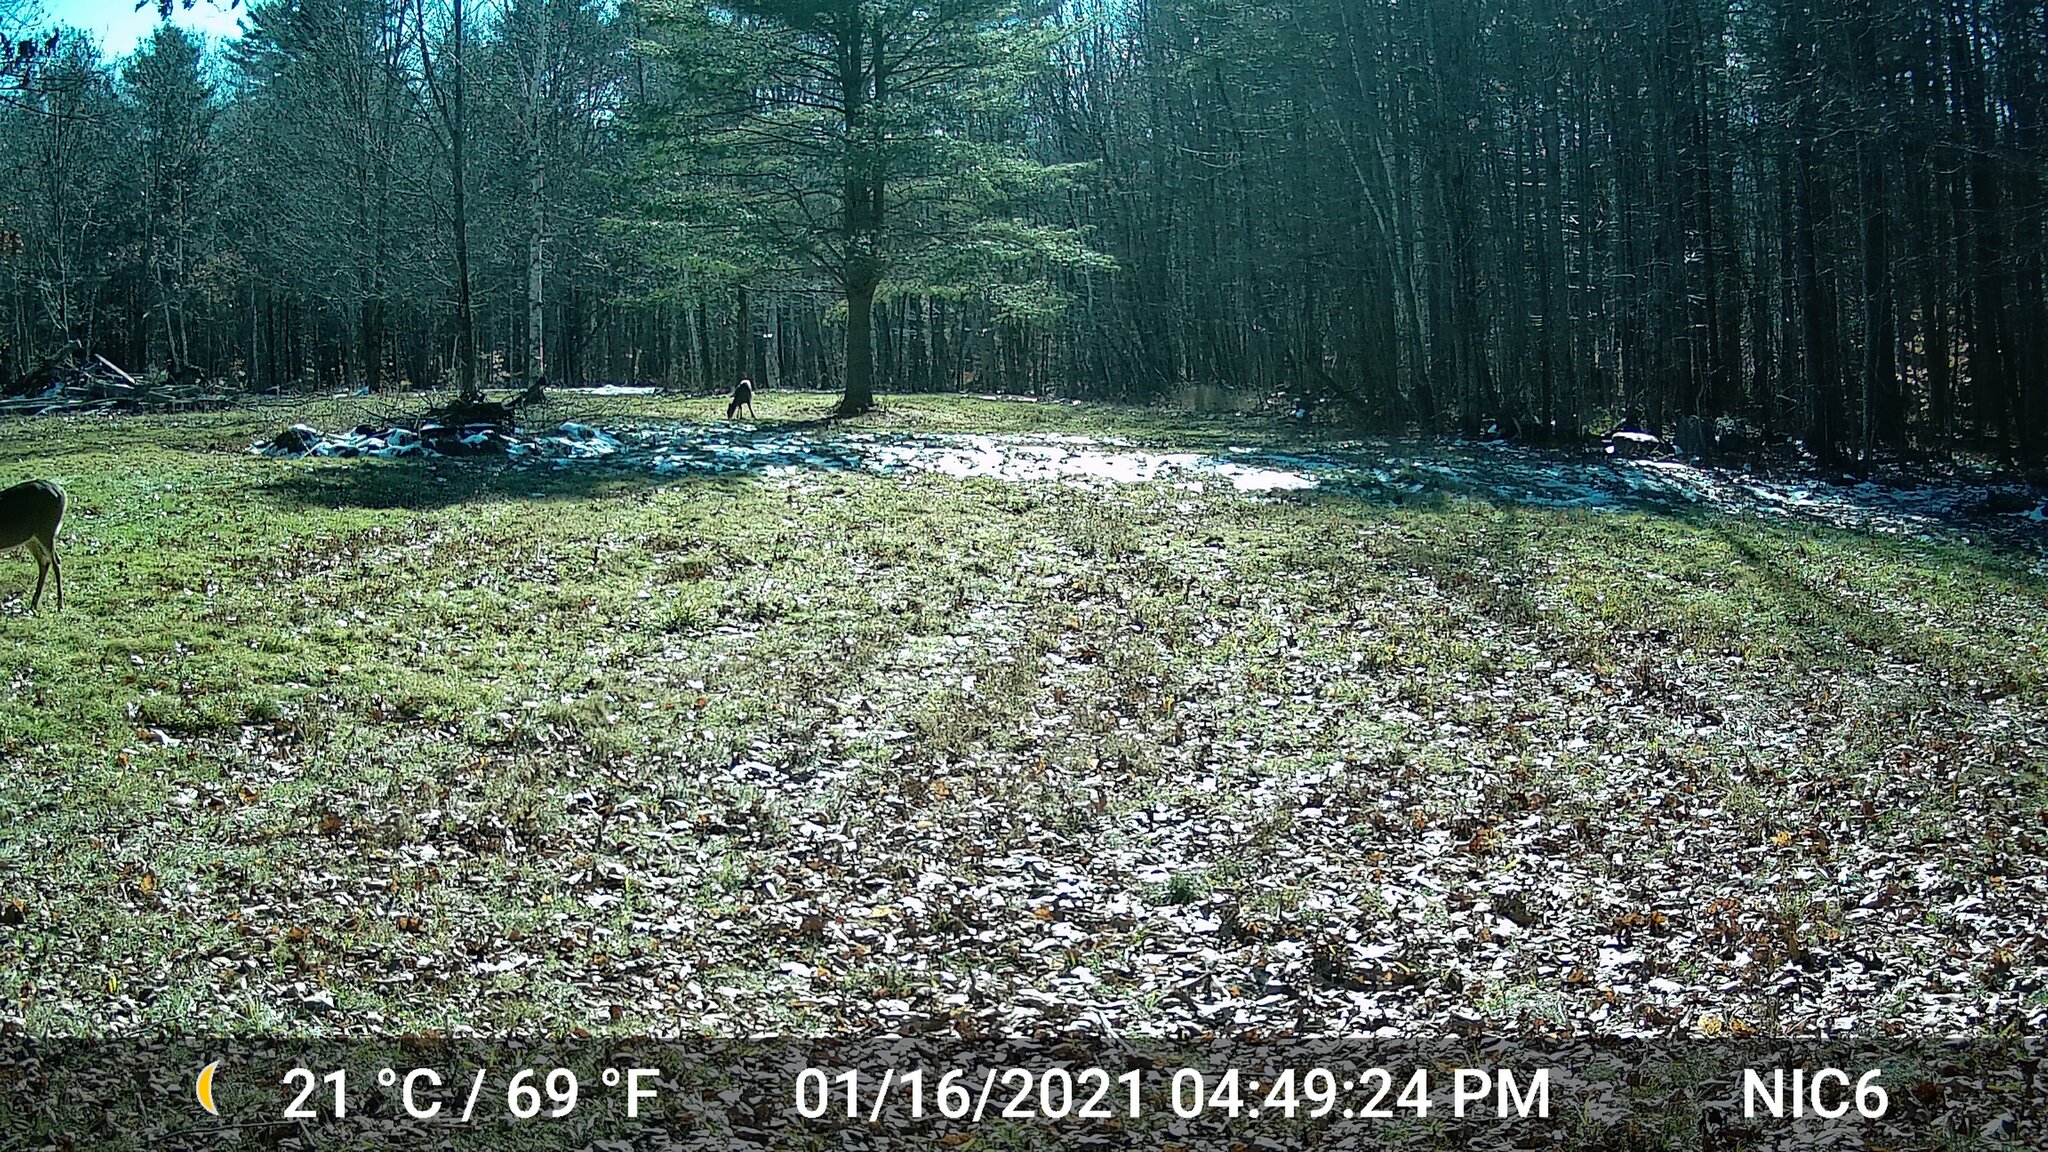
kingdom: Animalia
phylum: Chordata
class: Mammalia
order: Artiodactyla
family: Cervidae
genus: Odocoileus
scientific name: Odocoileus virginianus
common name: White-tailed deer
